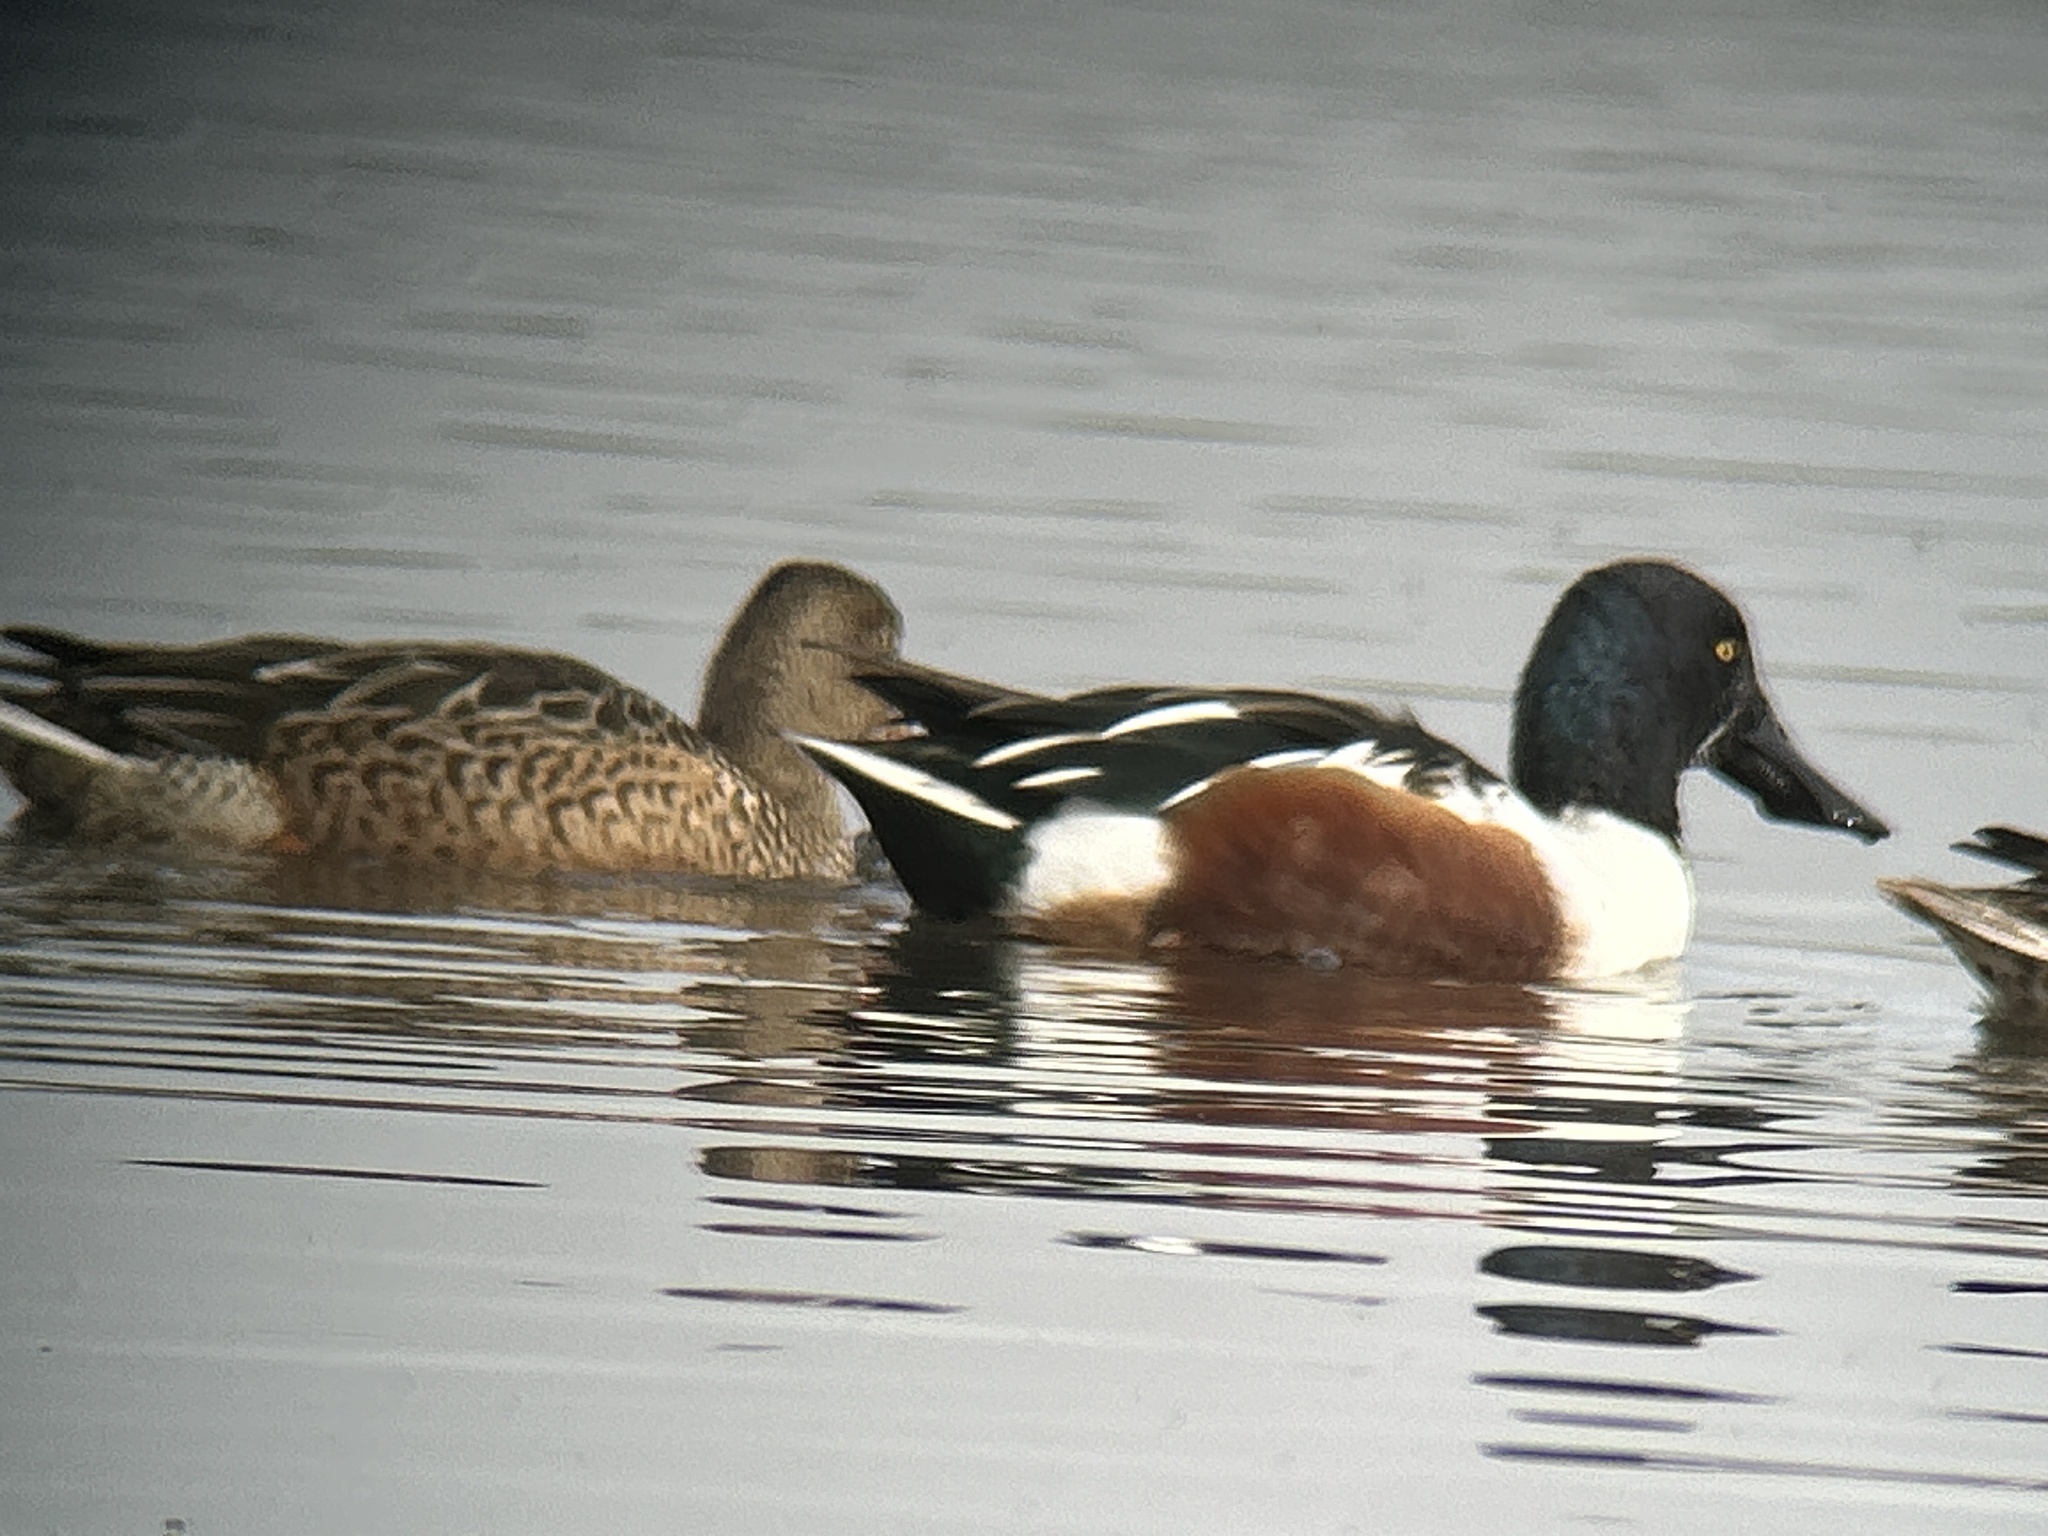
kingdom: Animalia
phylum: Chordata
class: Aves
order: Anseriformes
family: Anatidae
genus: Spatula
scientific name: Spatula clypeata
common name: Northern shoveler
